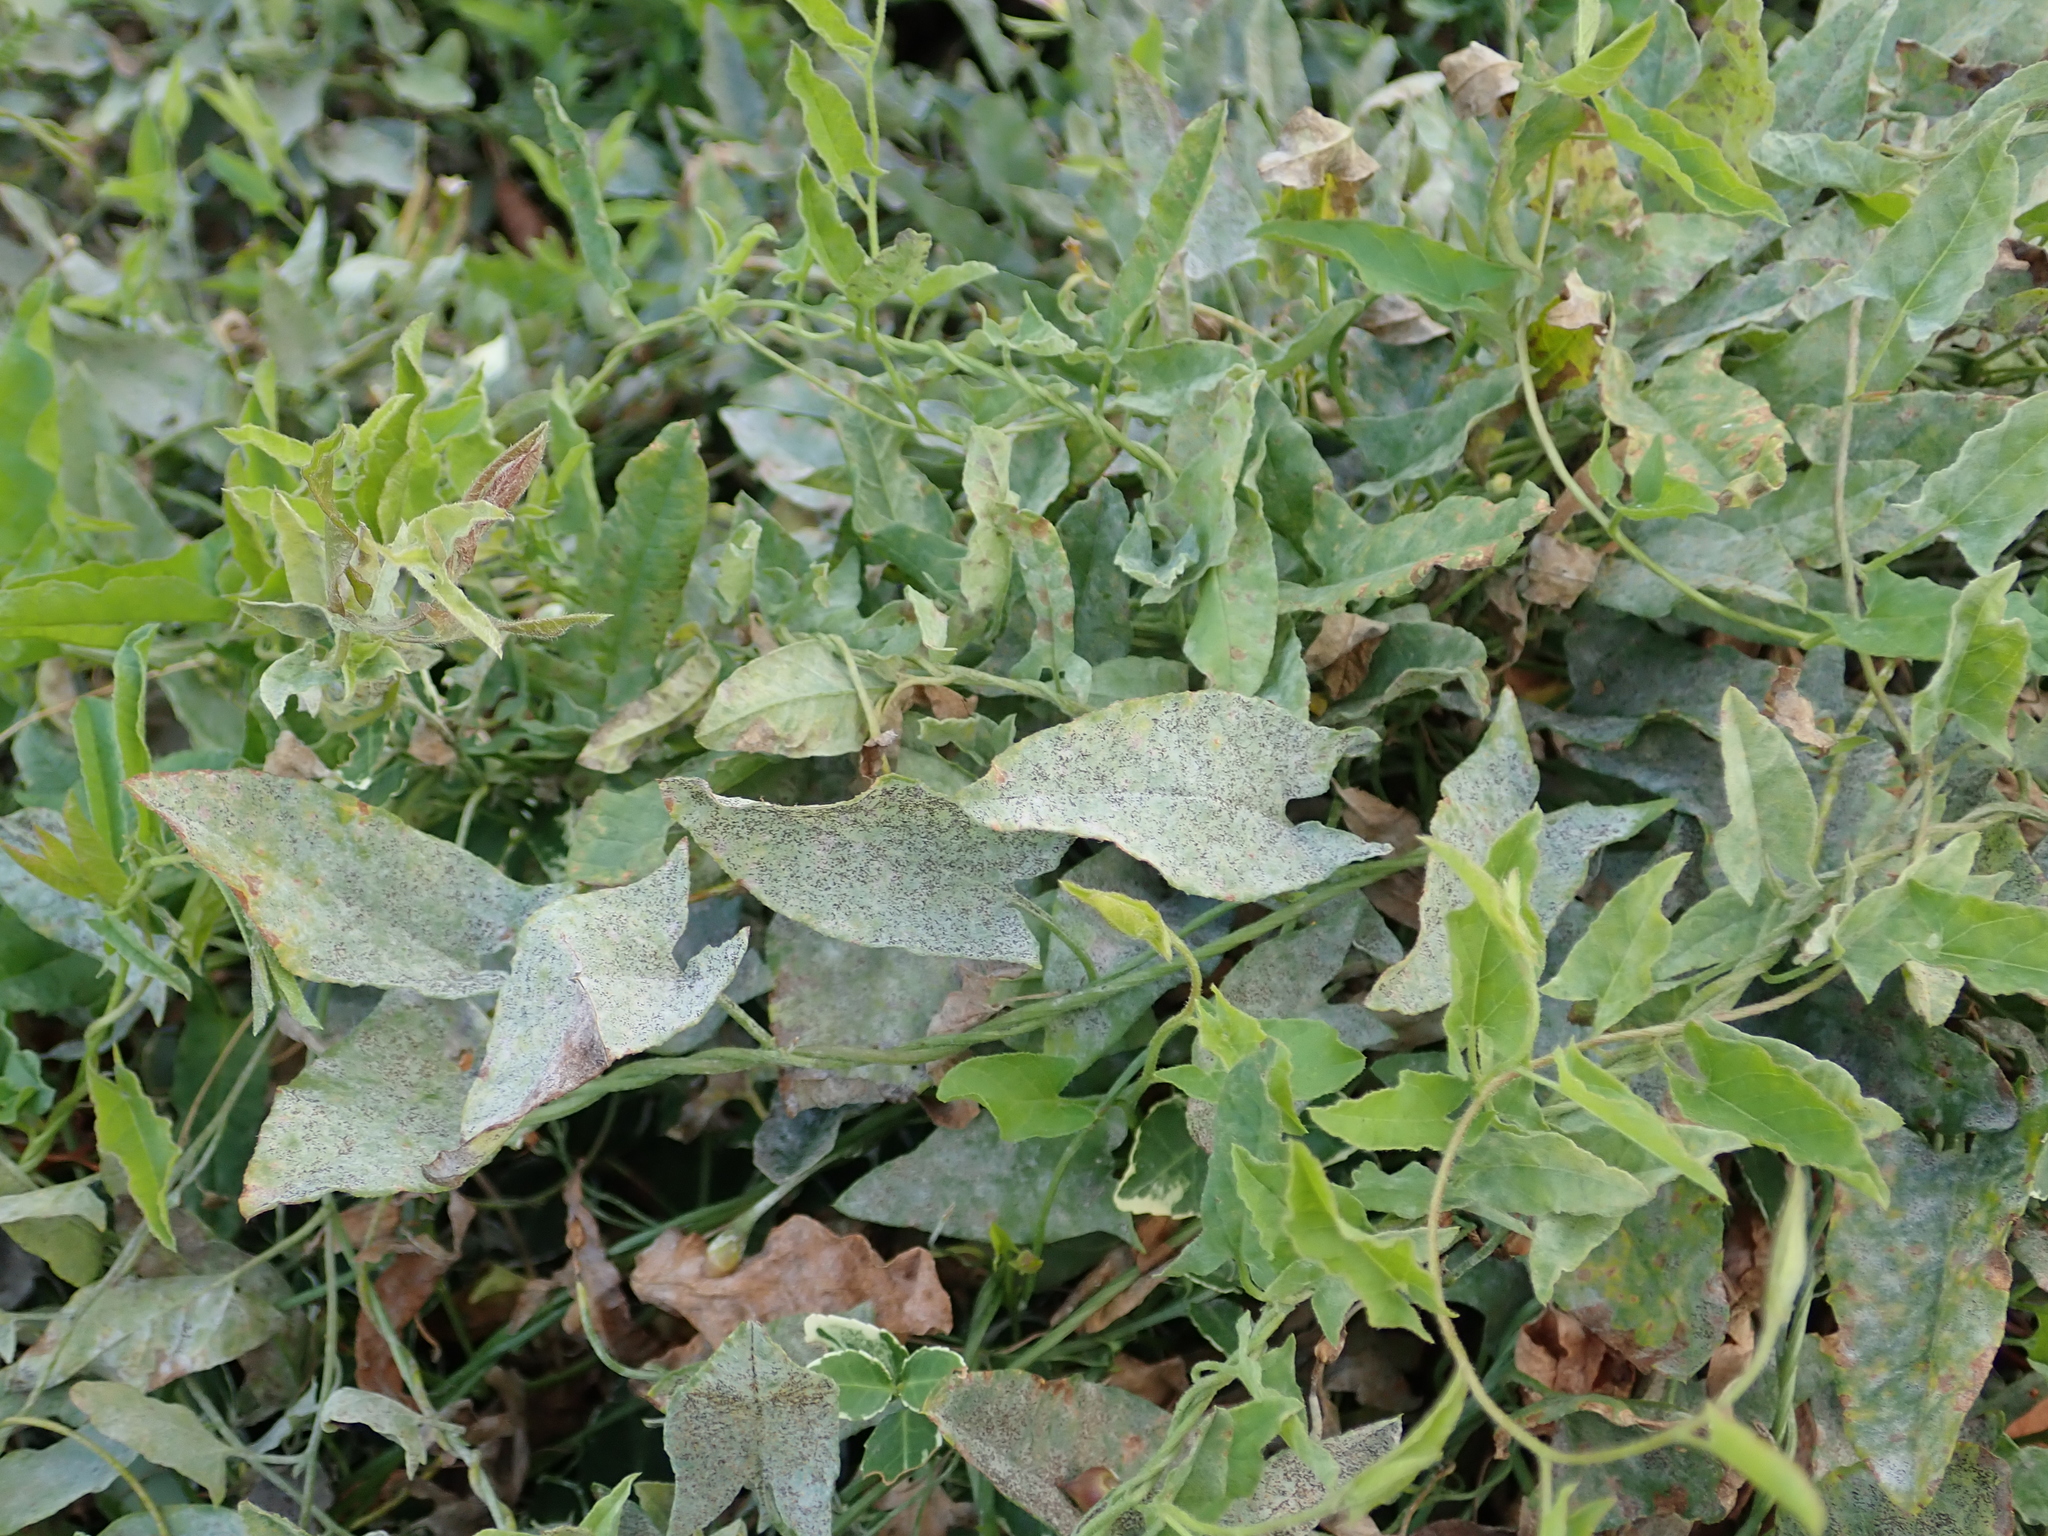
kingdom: Plantae
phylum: Tracheophyta
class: Magnoliopsida
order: Solanales
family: Convolvulaceae
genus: Convolvulus
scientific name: Convolvulus arvensis
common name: Field bindweed
